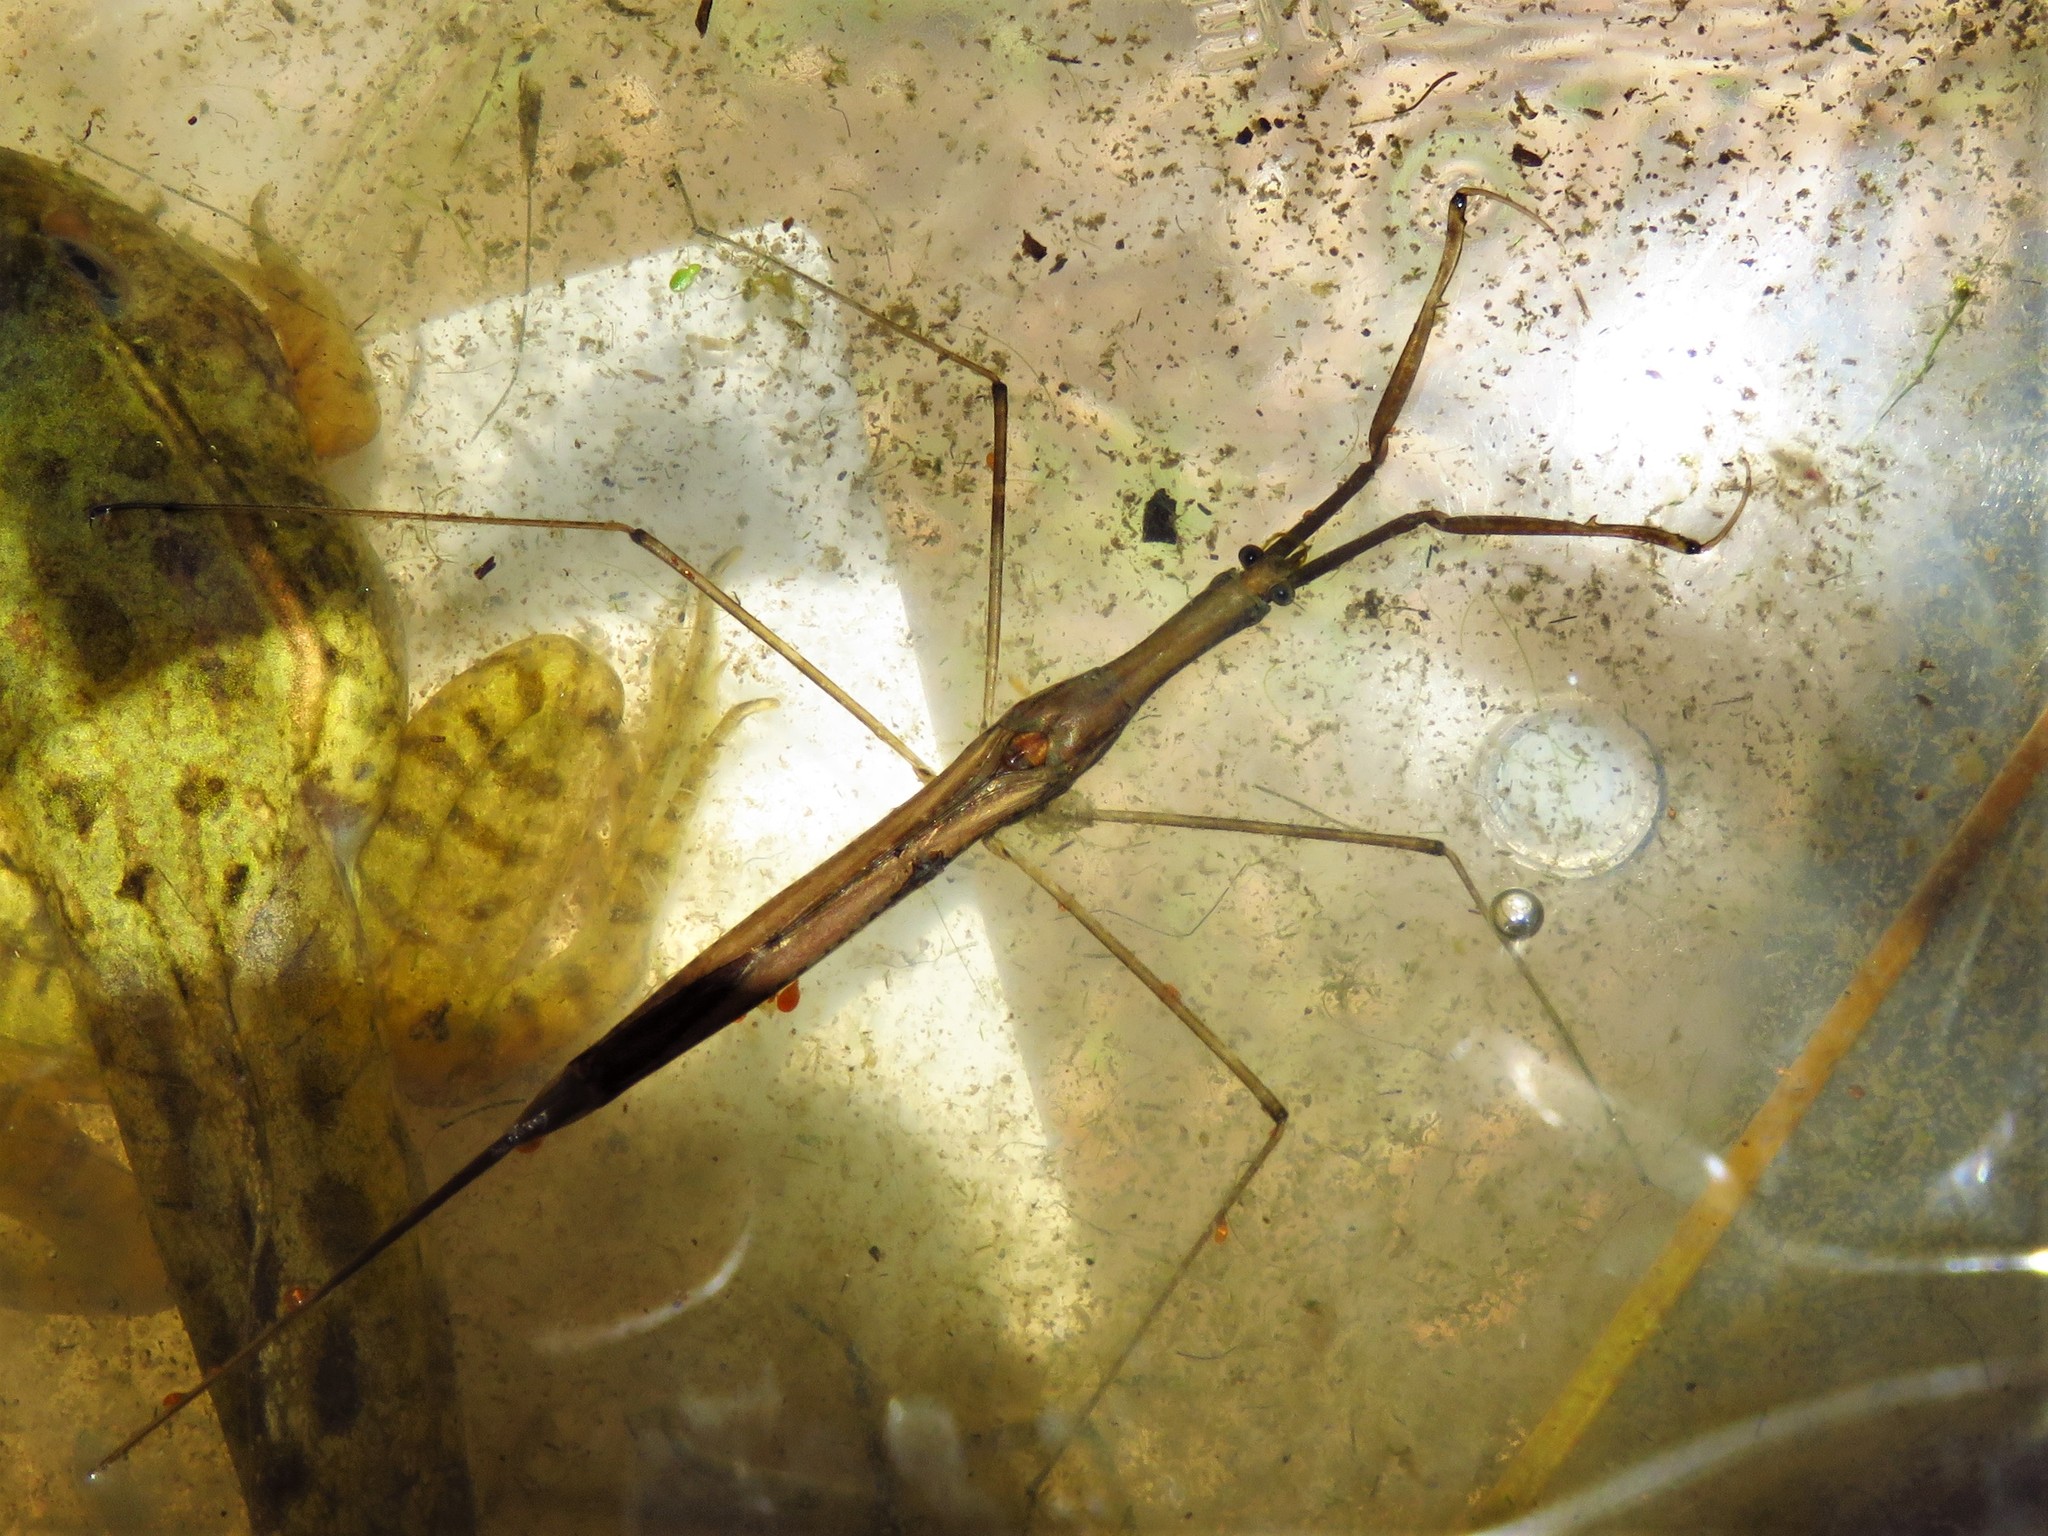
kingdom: Animalia
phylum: Arthropoda
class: Insecta
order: Hemiptera
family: Nepidae
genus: Ranatra
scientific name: Ranatra quadridentata
